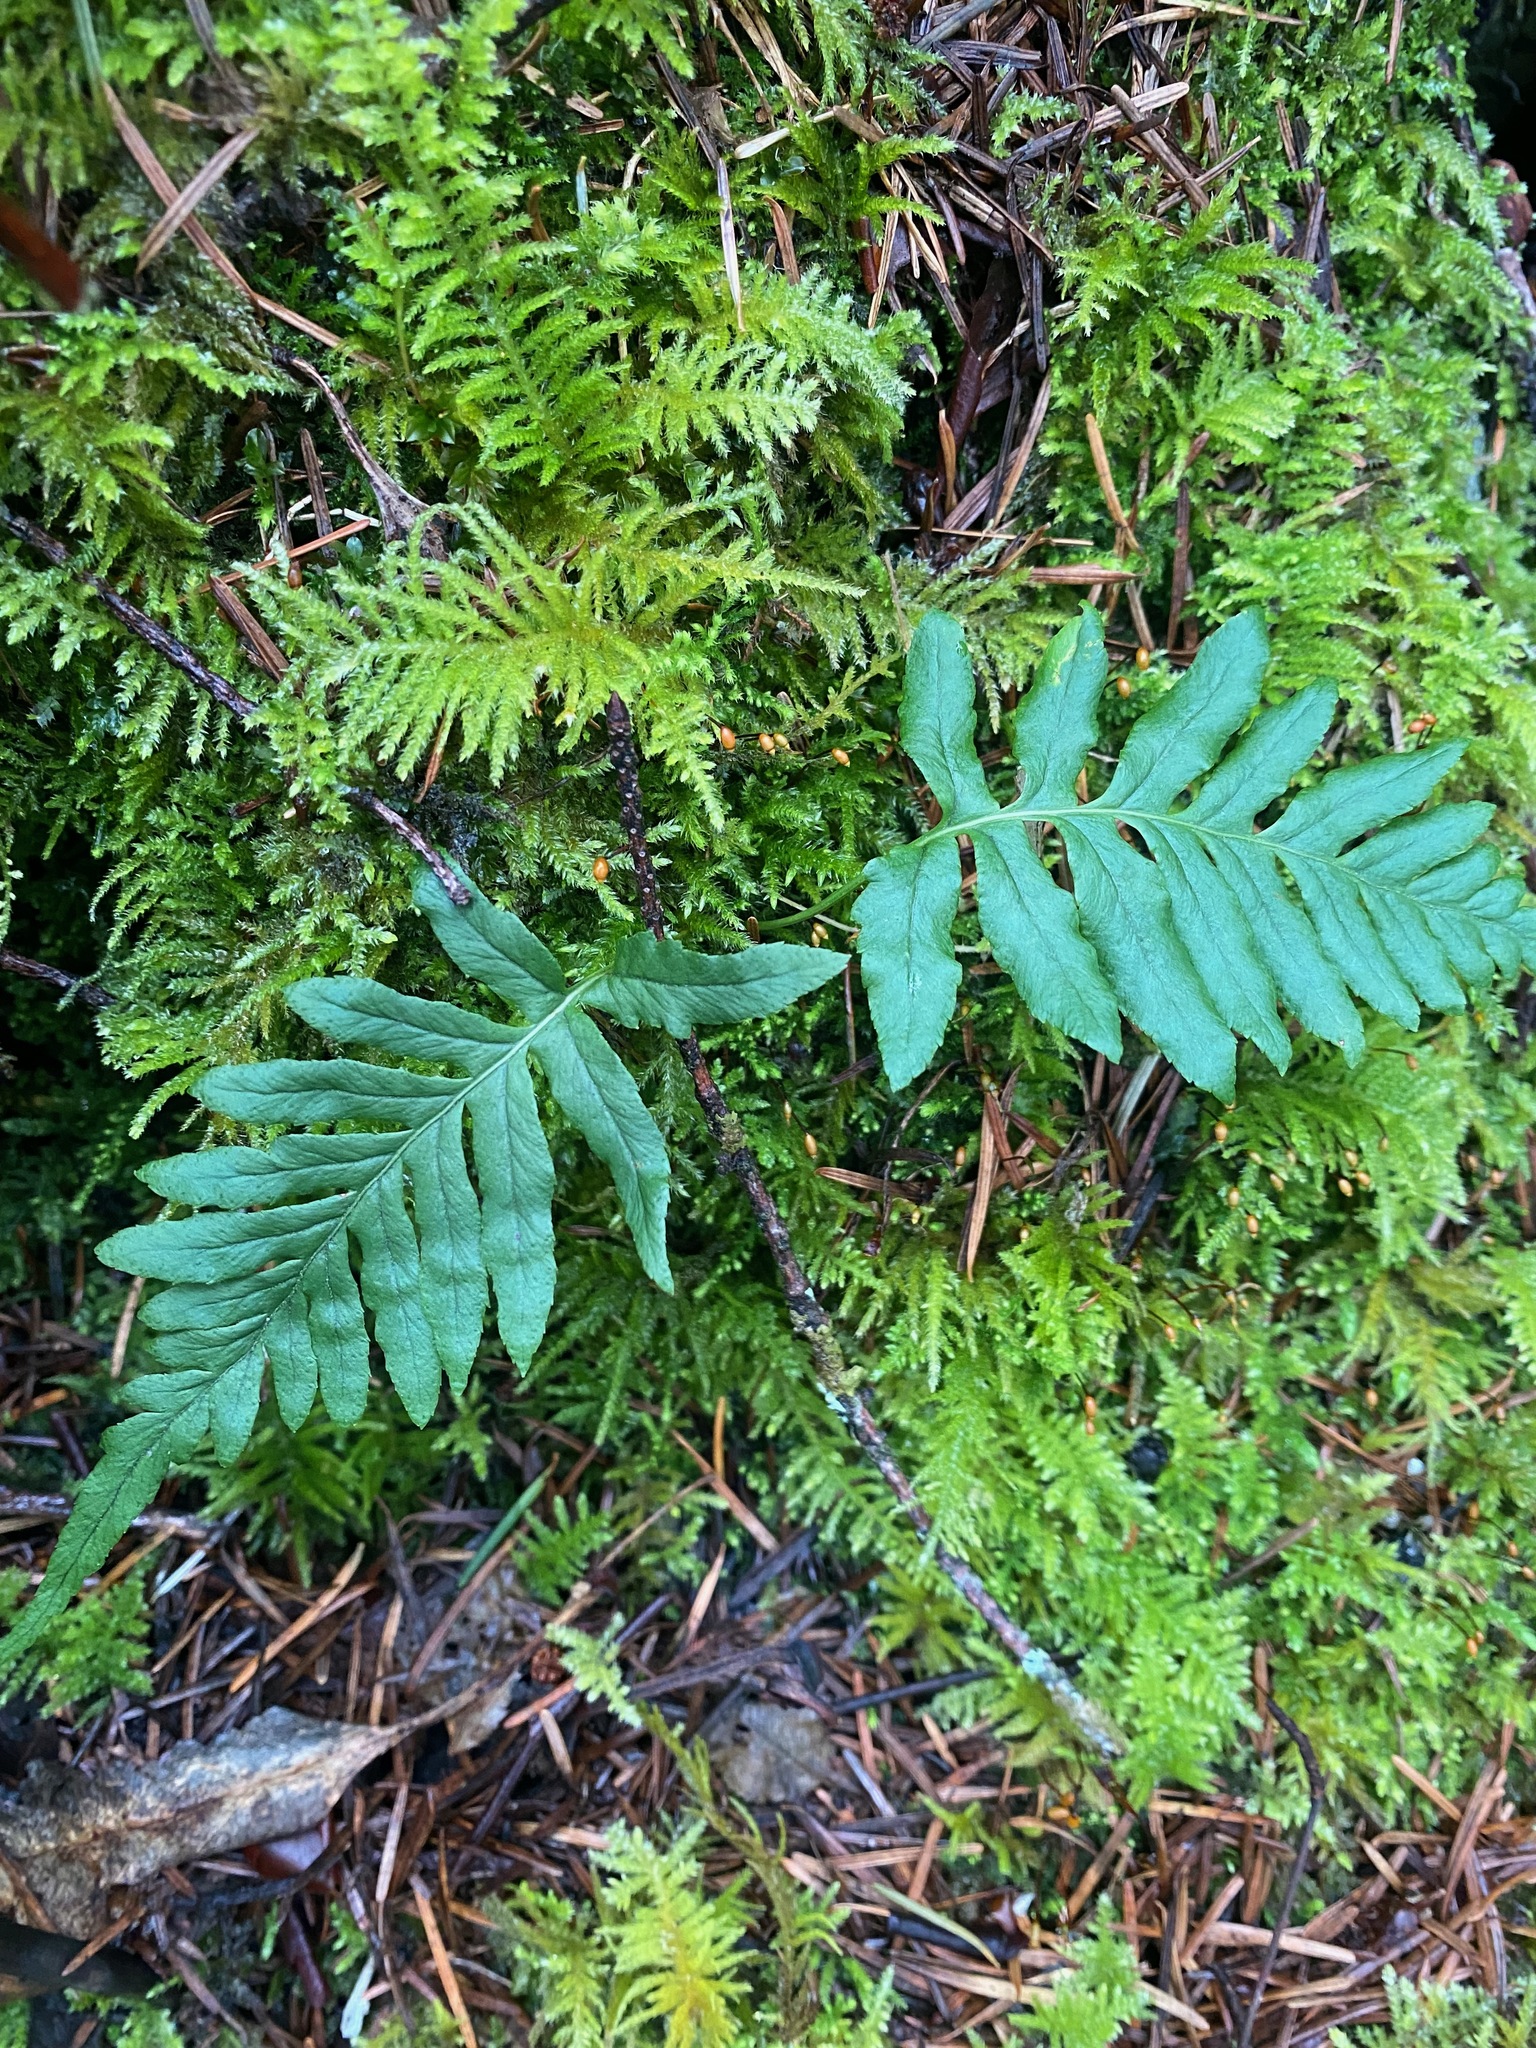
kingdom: Plantae
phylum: Tracheophyta
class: Polypodiopsida
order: Polypodiales
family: Polypodiaceae
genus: Polypodium
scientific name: Polypodium glycyrrhiza
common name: Licorice fern
